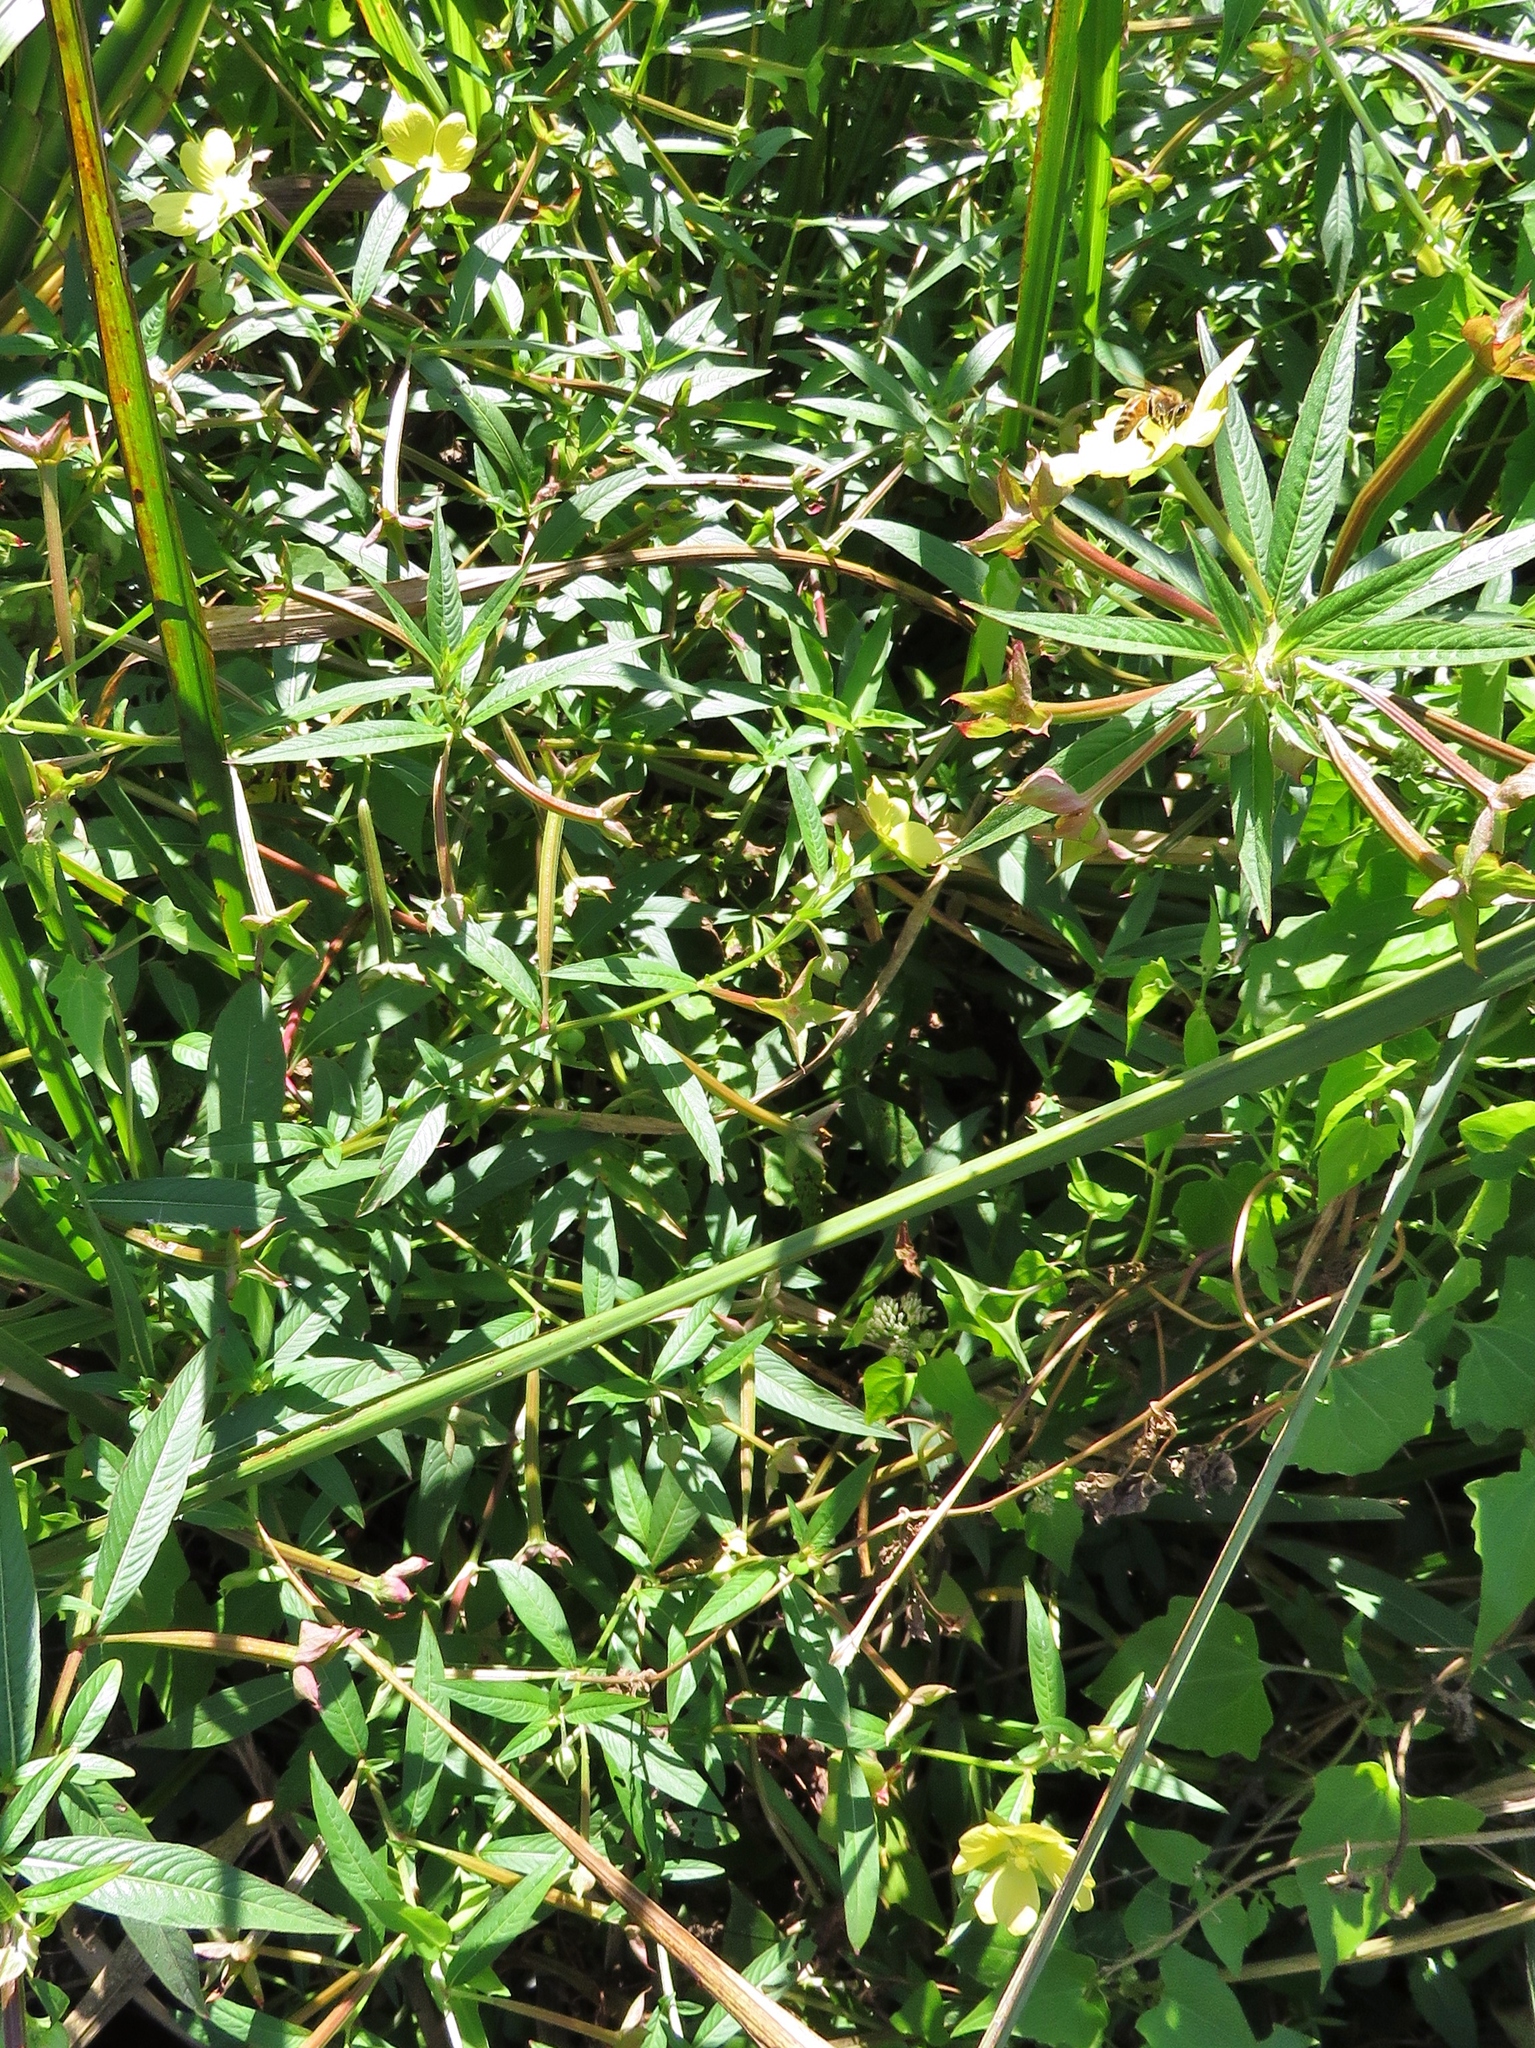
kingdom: Plantae
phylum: Tracheophyta
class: Magnoliopsida
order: Myrtales
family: Onagraceae
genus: Ludwigia
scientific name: Ludwigia octovalvis
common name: Water-primrose
